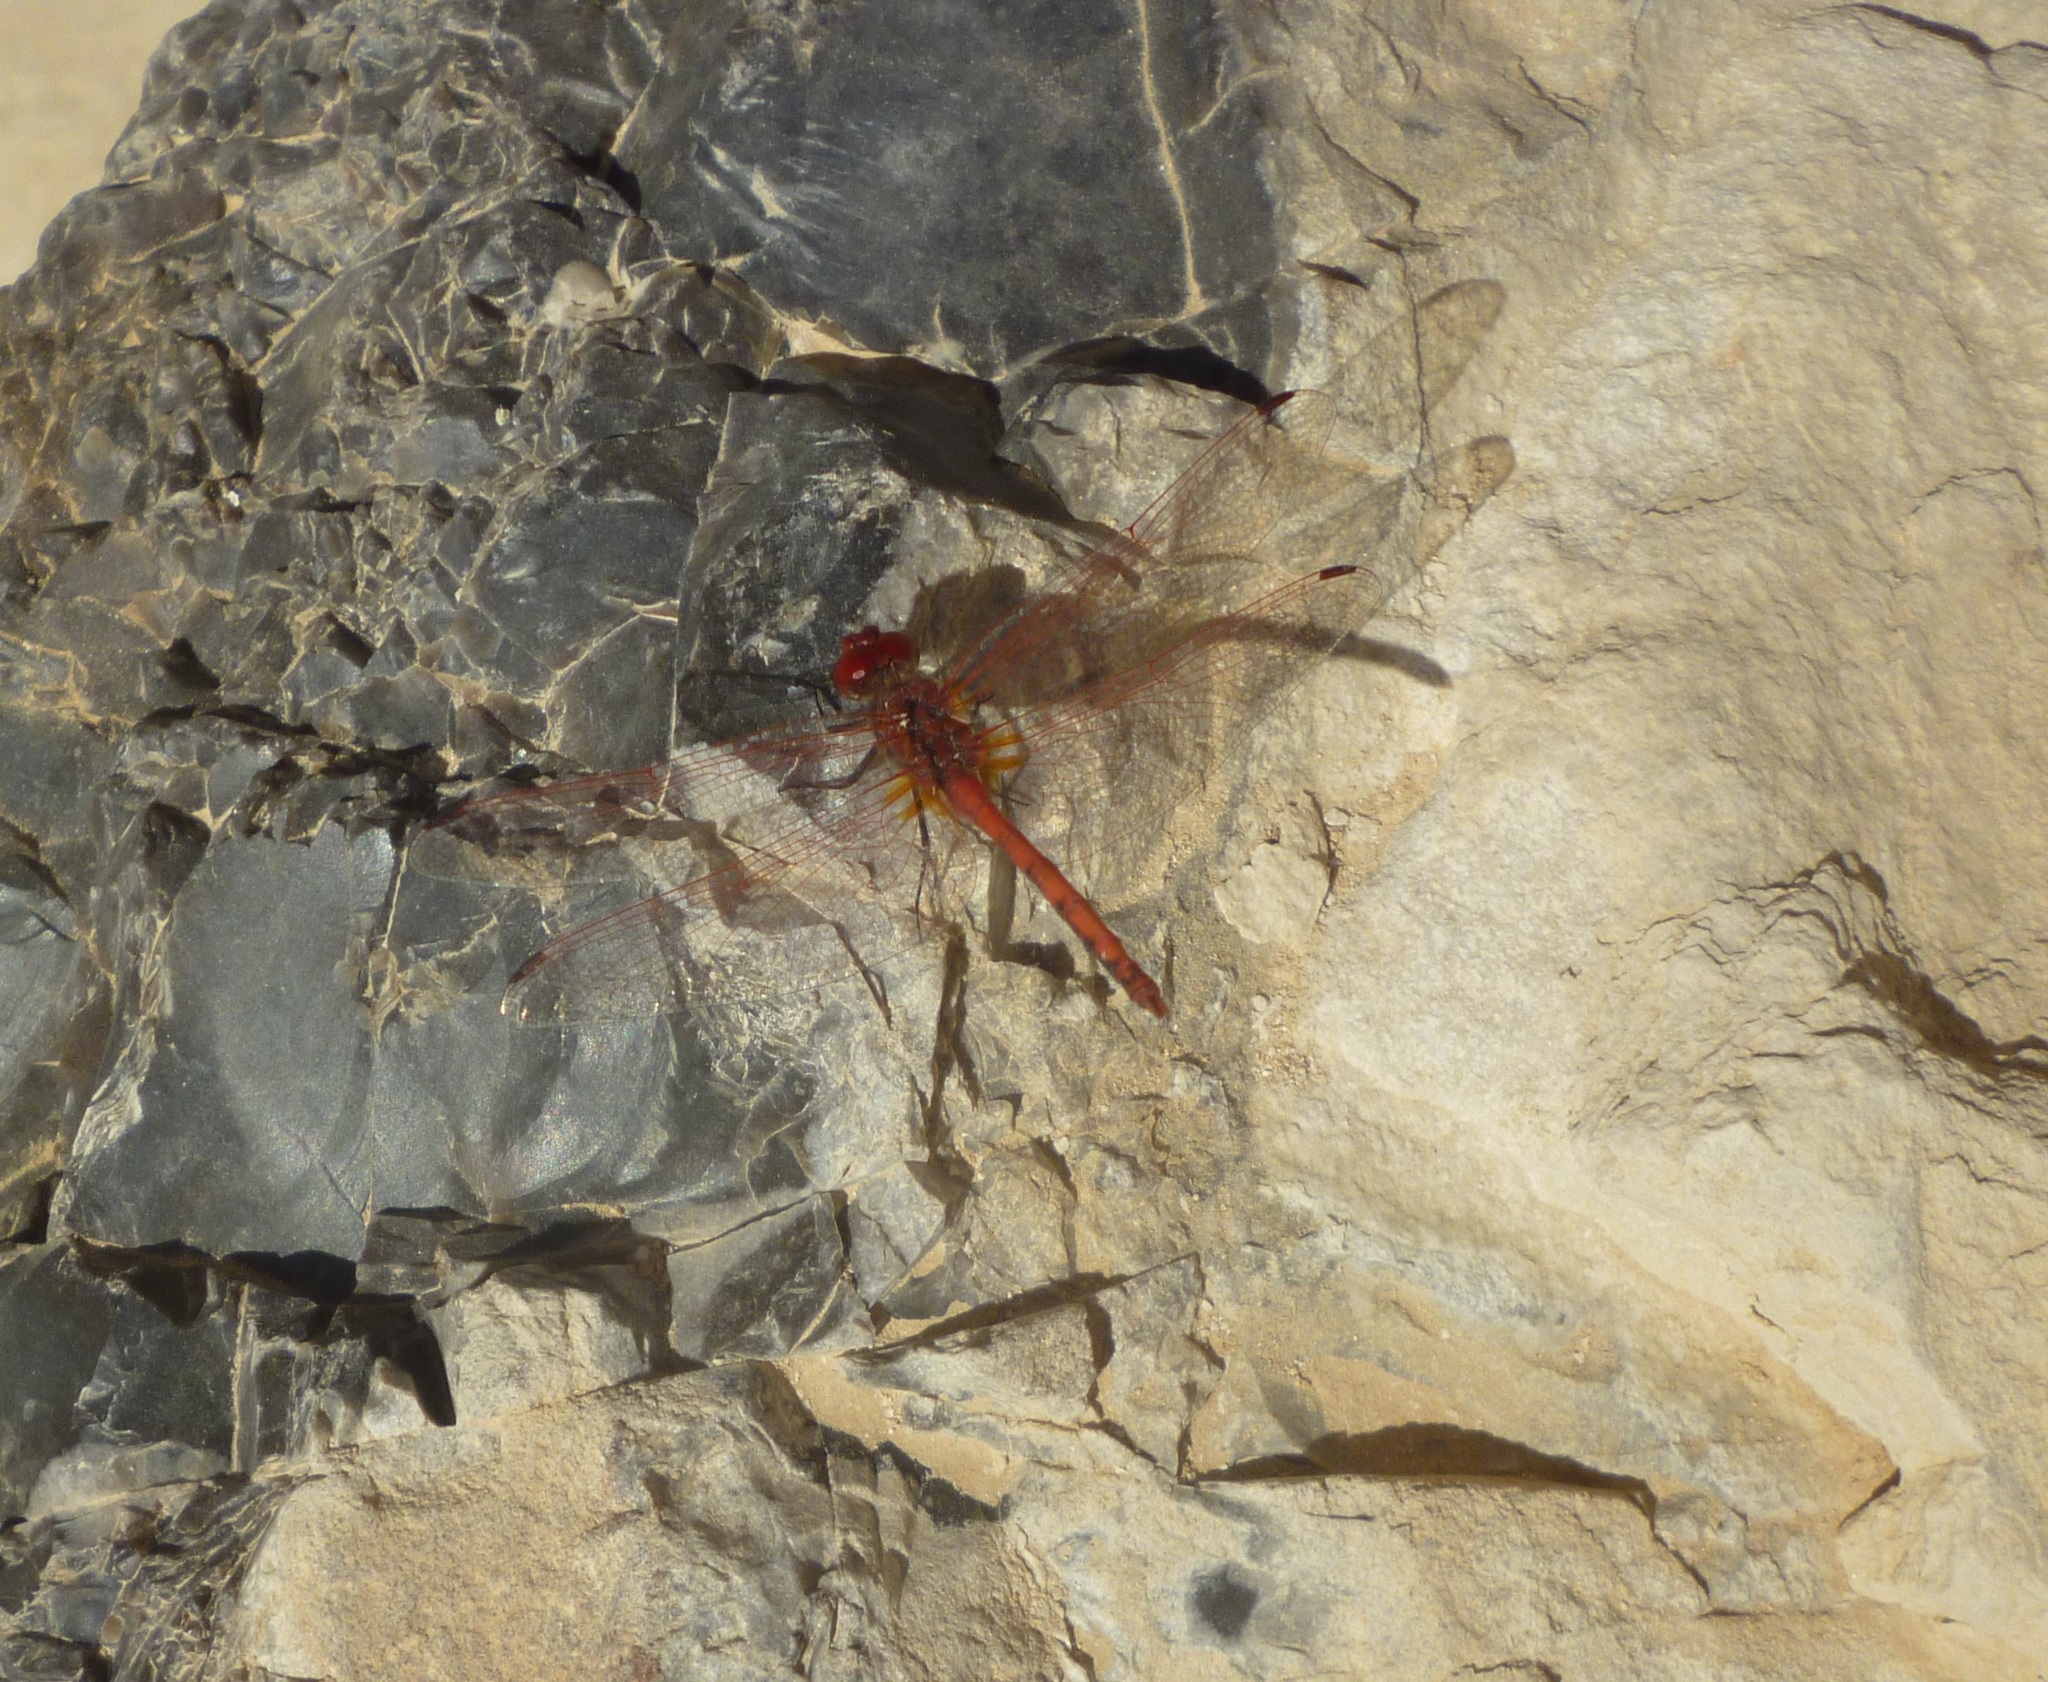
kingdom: Animalia
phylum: Arthropoda
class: Insecta
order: Odonata
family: Libellulidae
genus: Trithemis
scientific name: Trithemis arteriosa
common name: Red-veined dropwing
